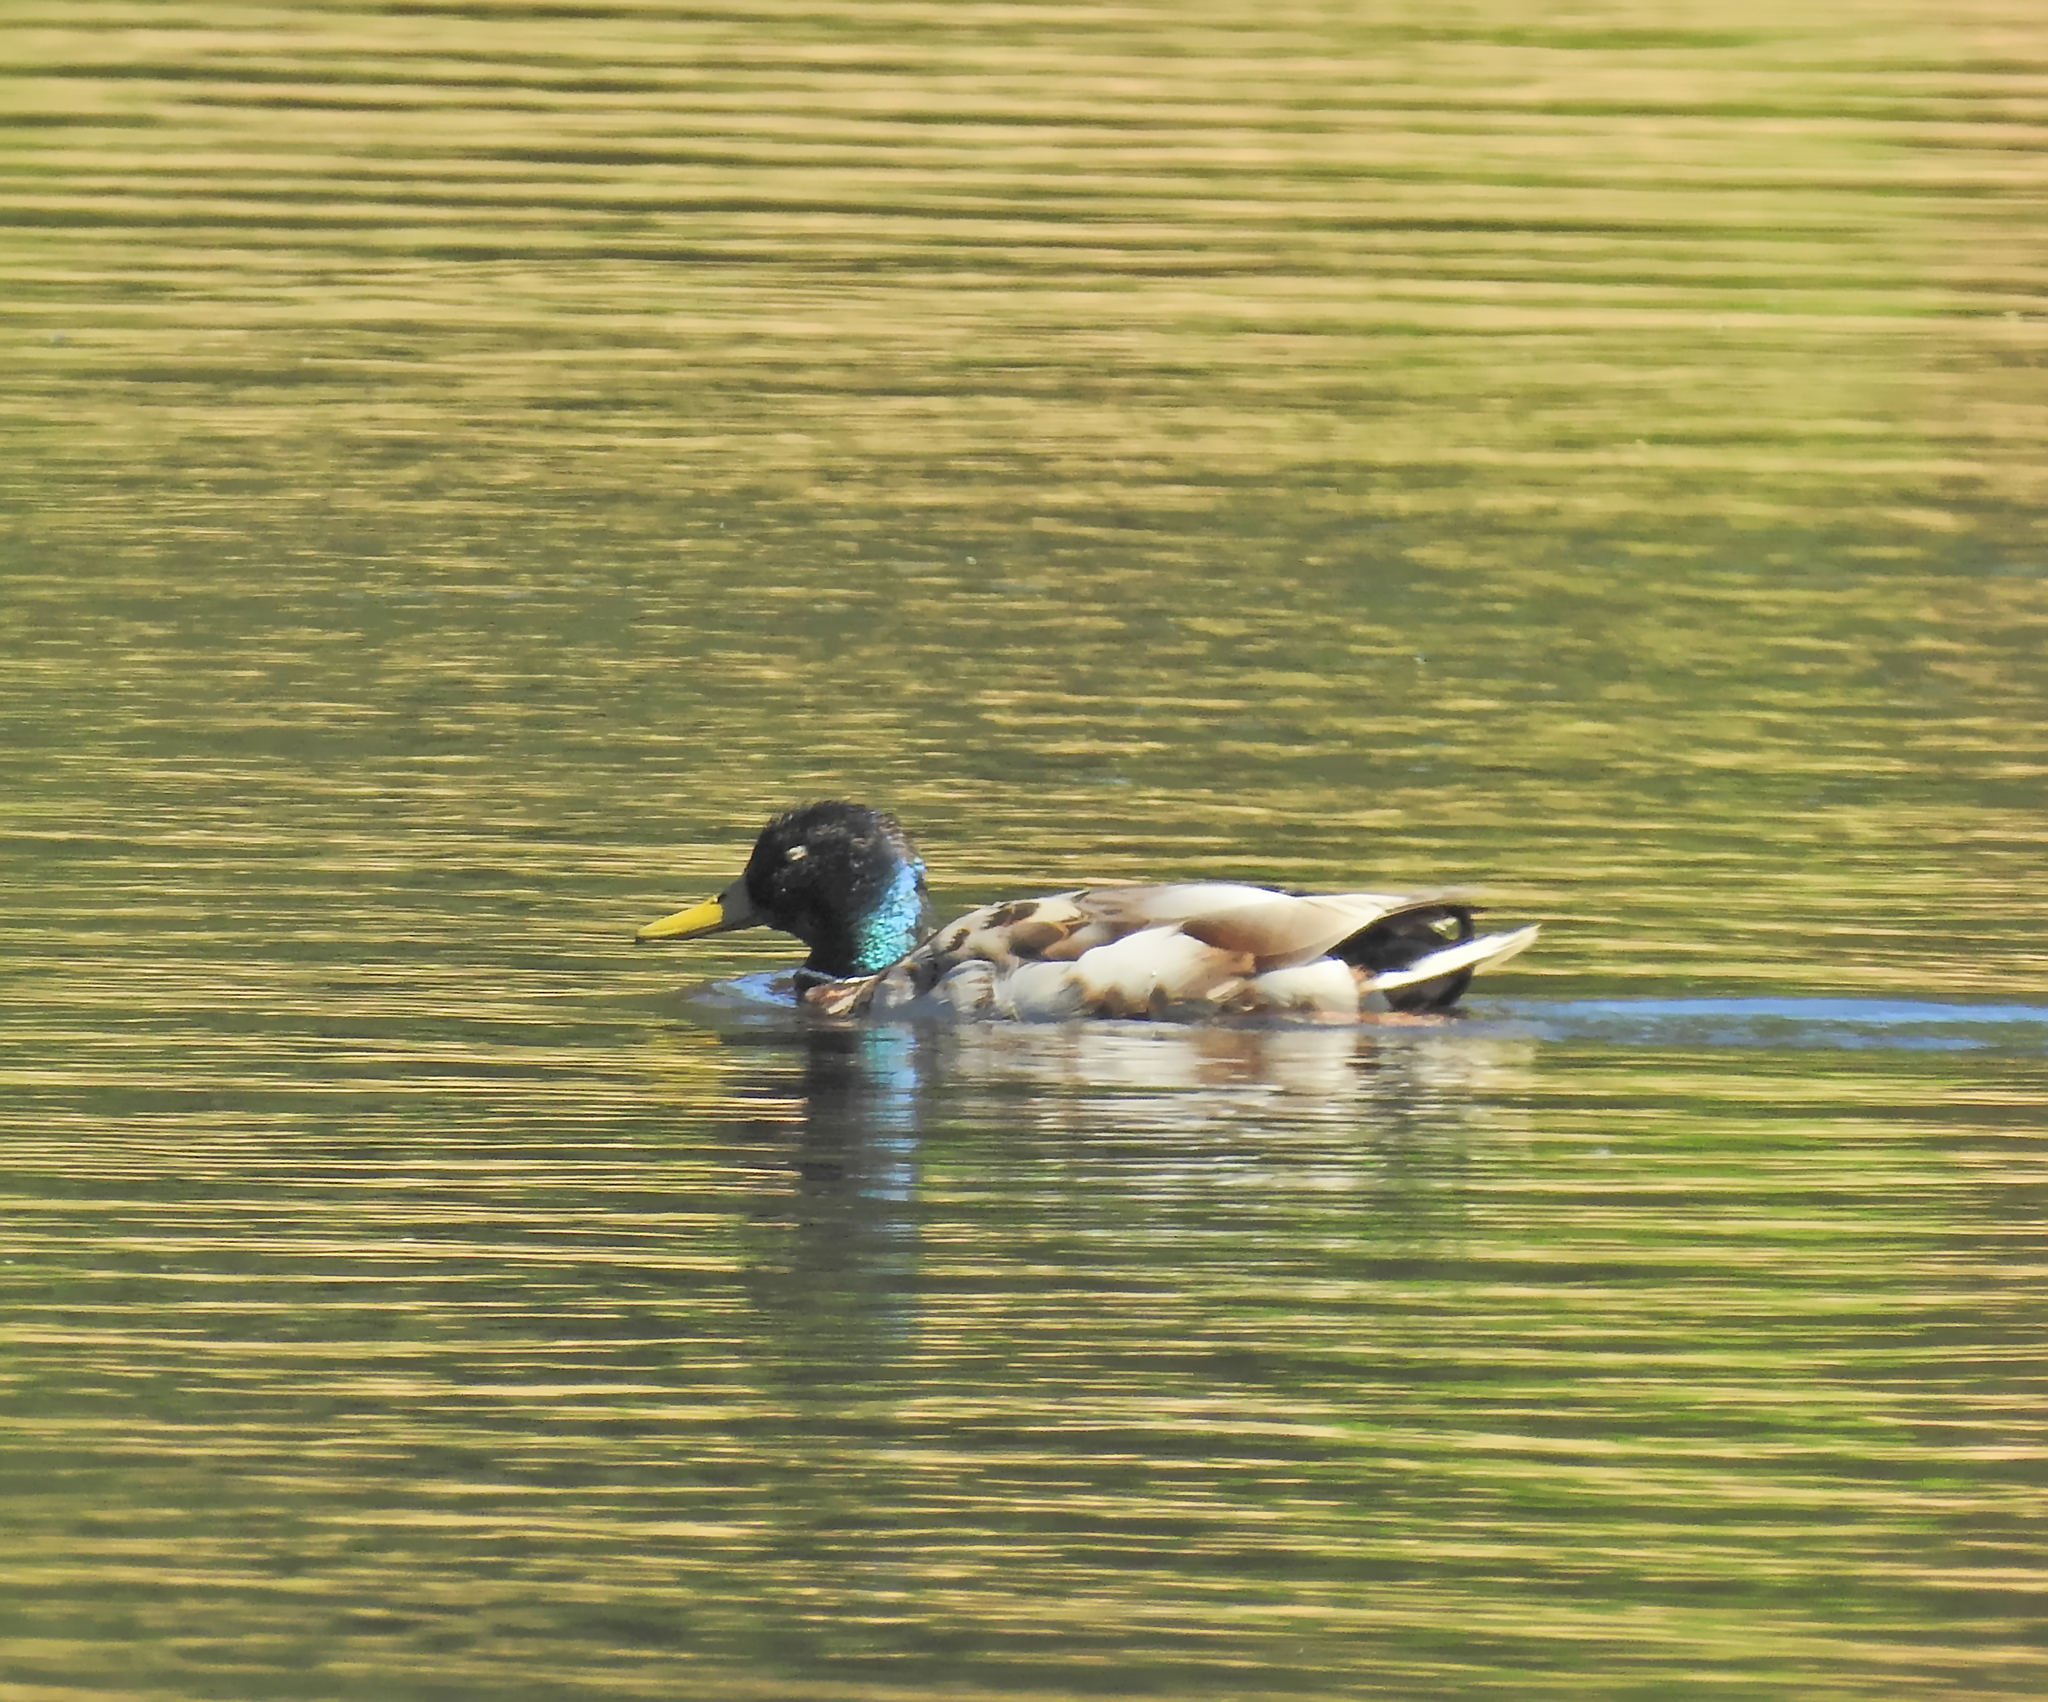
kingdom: Animalia
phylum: Chordata
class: Aves
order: Anseriformes
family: Anatidae
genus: Anas
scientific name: Anas platyrhynchos
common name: Mallard
